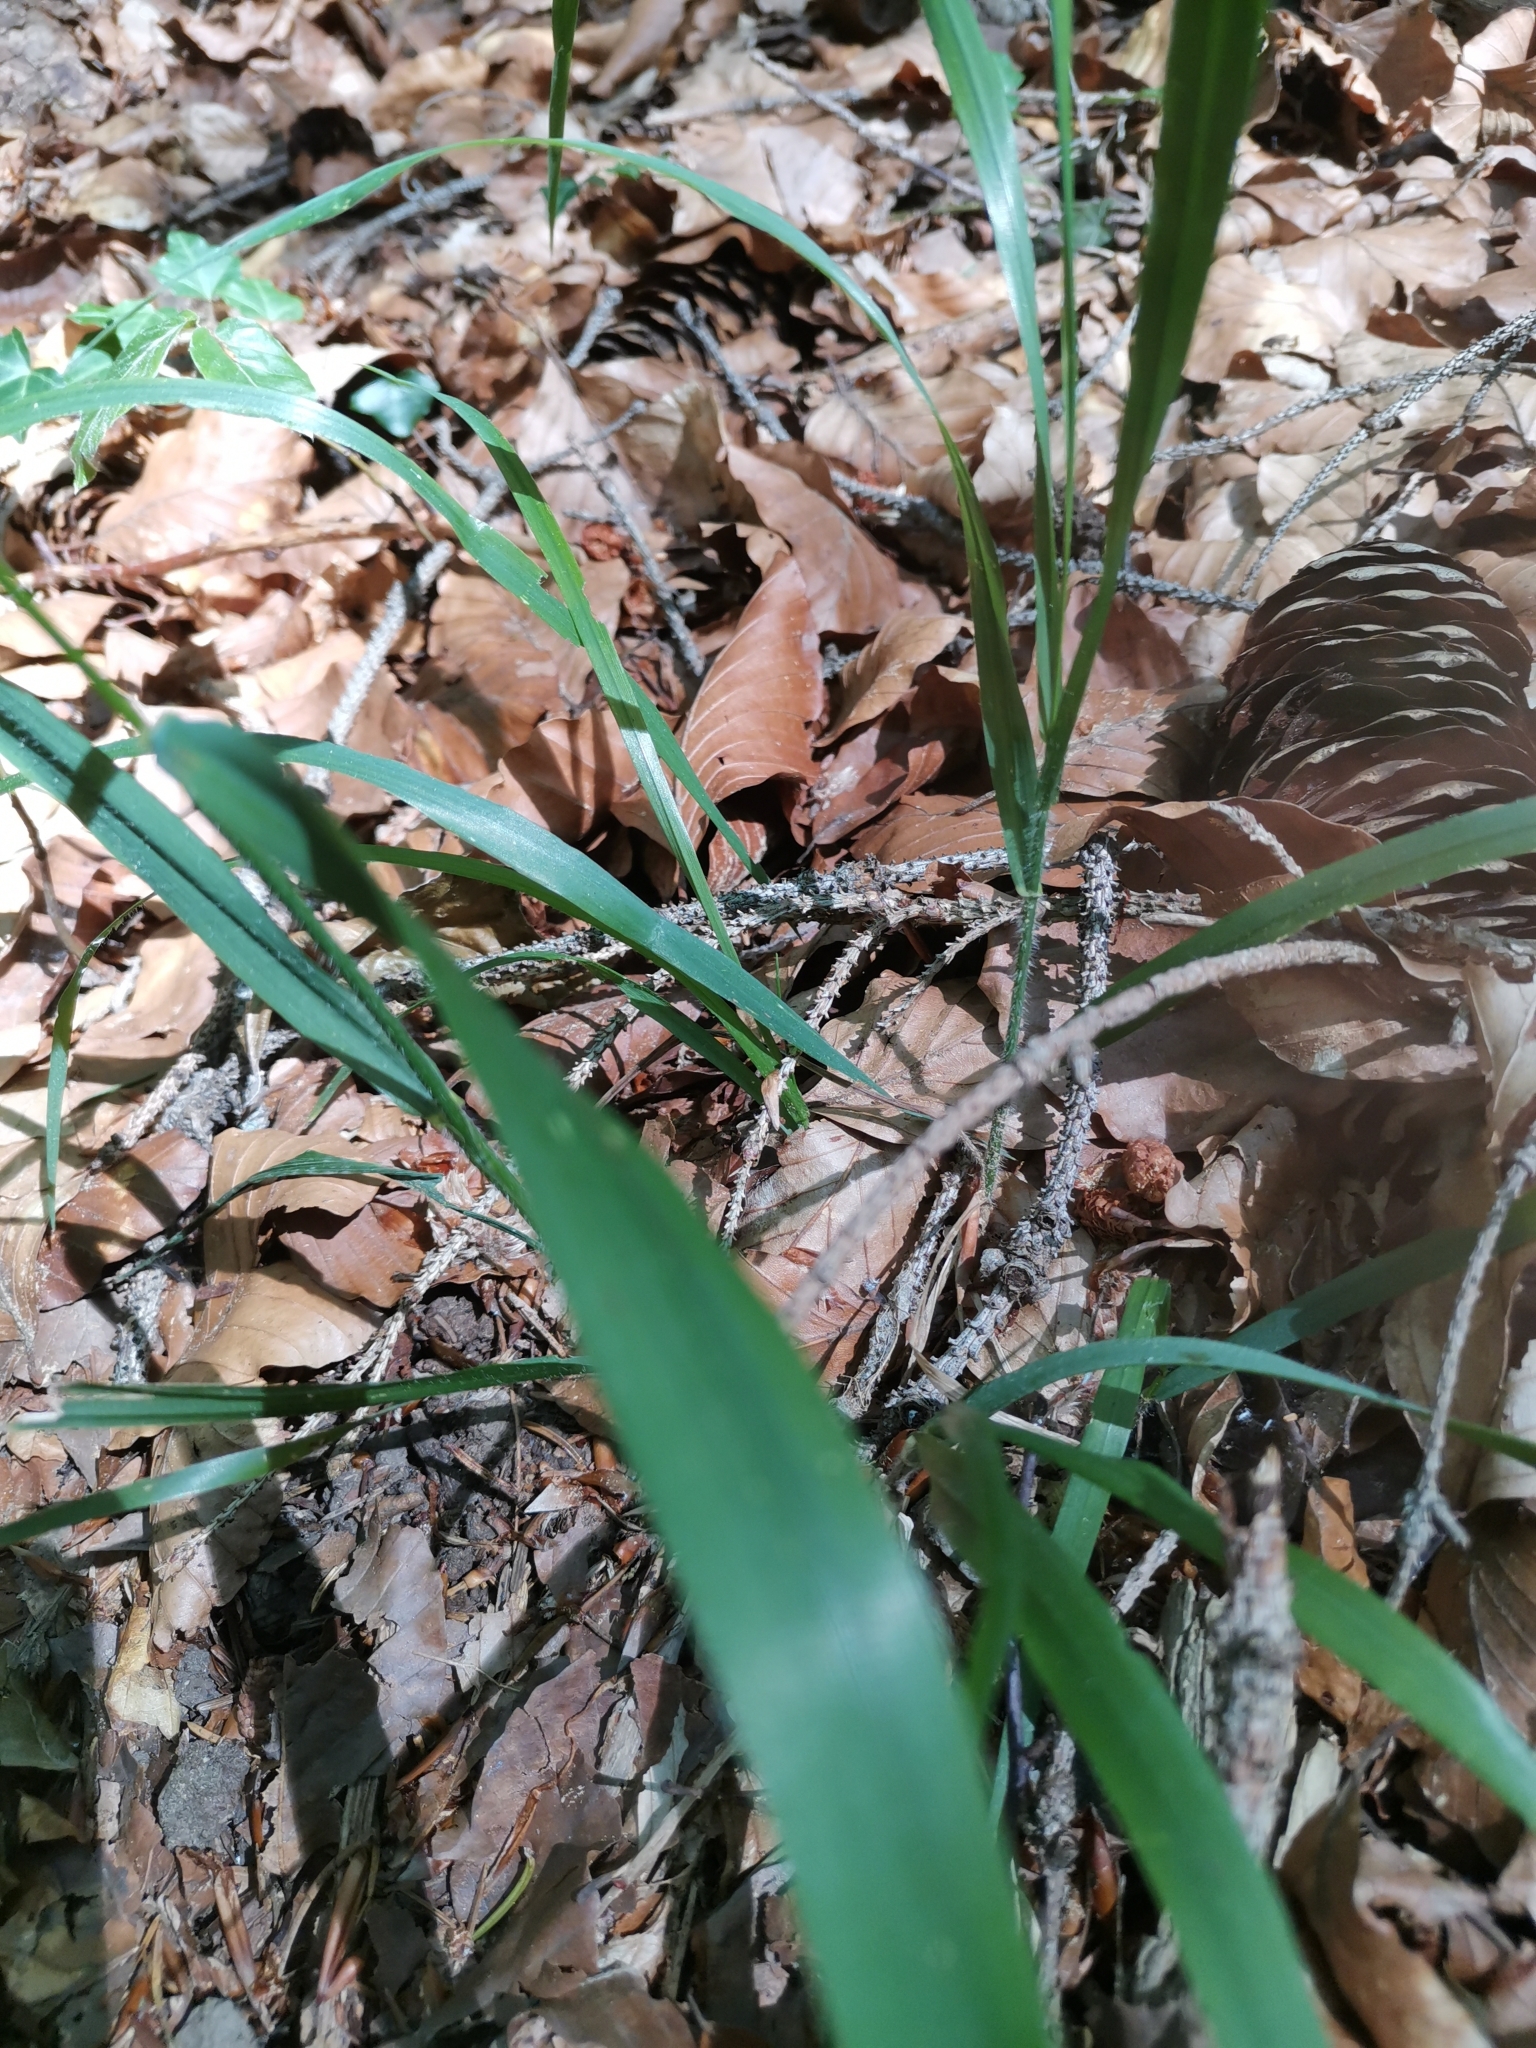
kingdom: Plantae
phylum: Tracheophyta
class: Liliopsida
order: Poales
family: Poaceae
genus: Hordelymus
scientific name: Hordelymus europaeus
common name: Wood-barley
